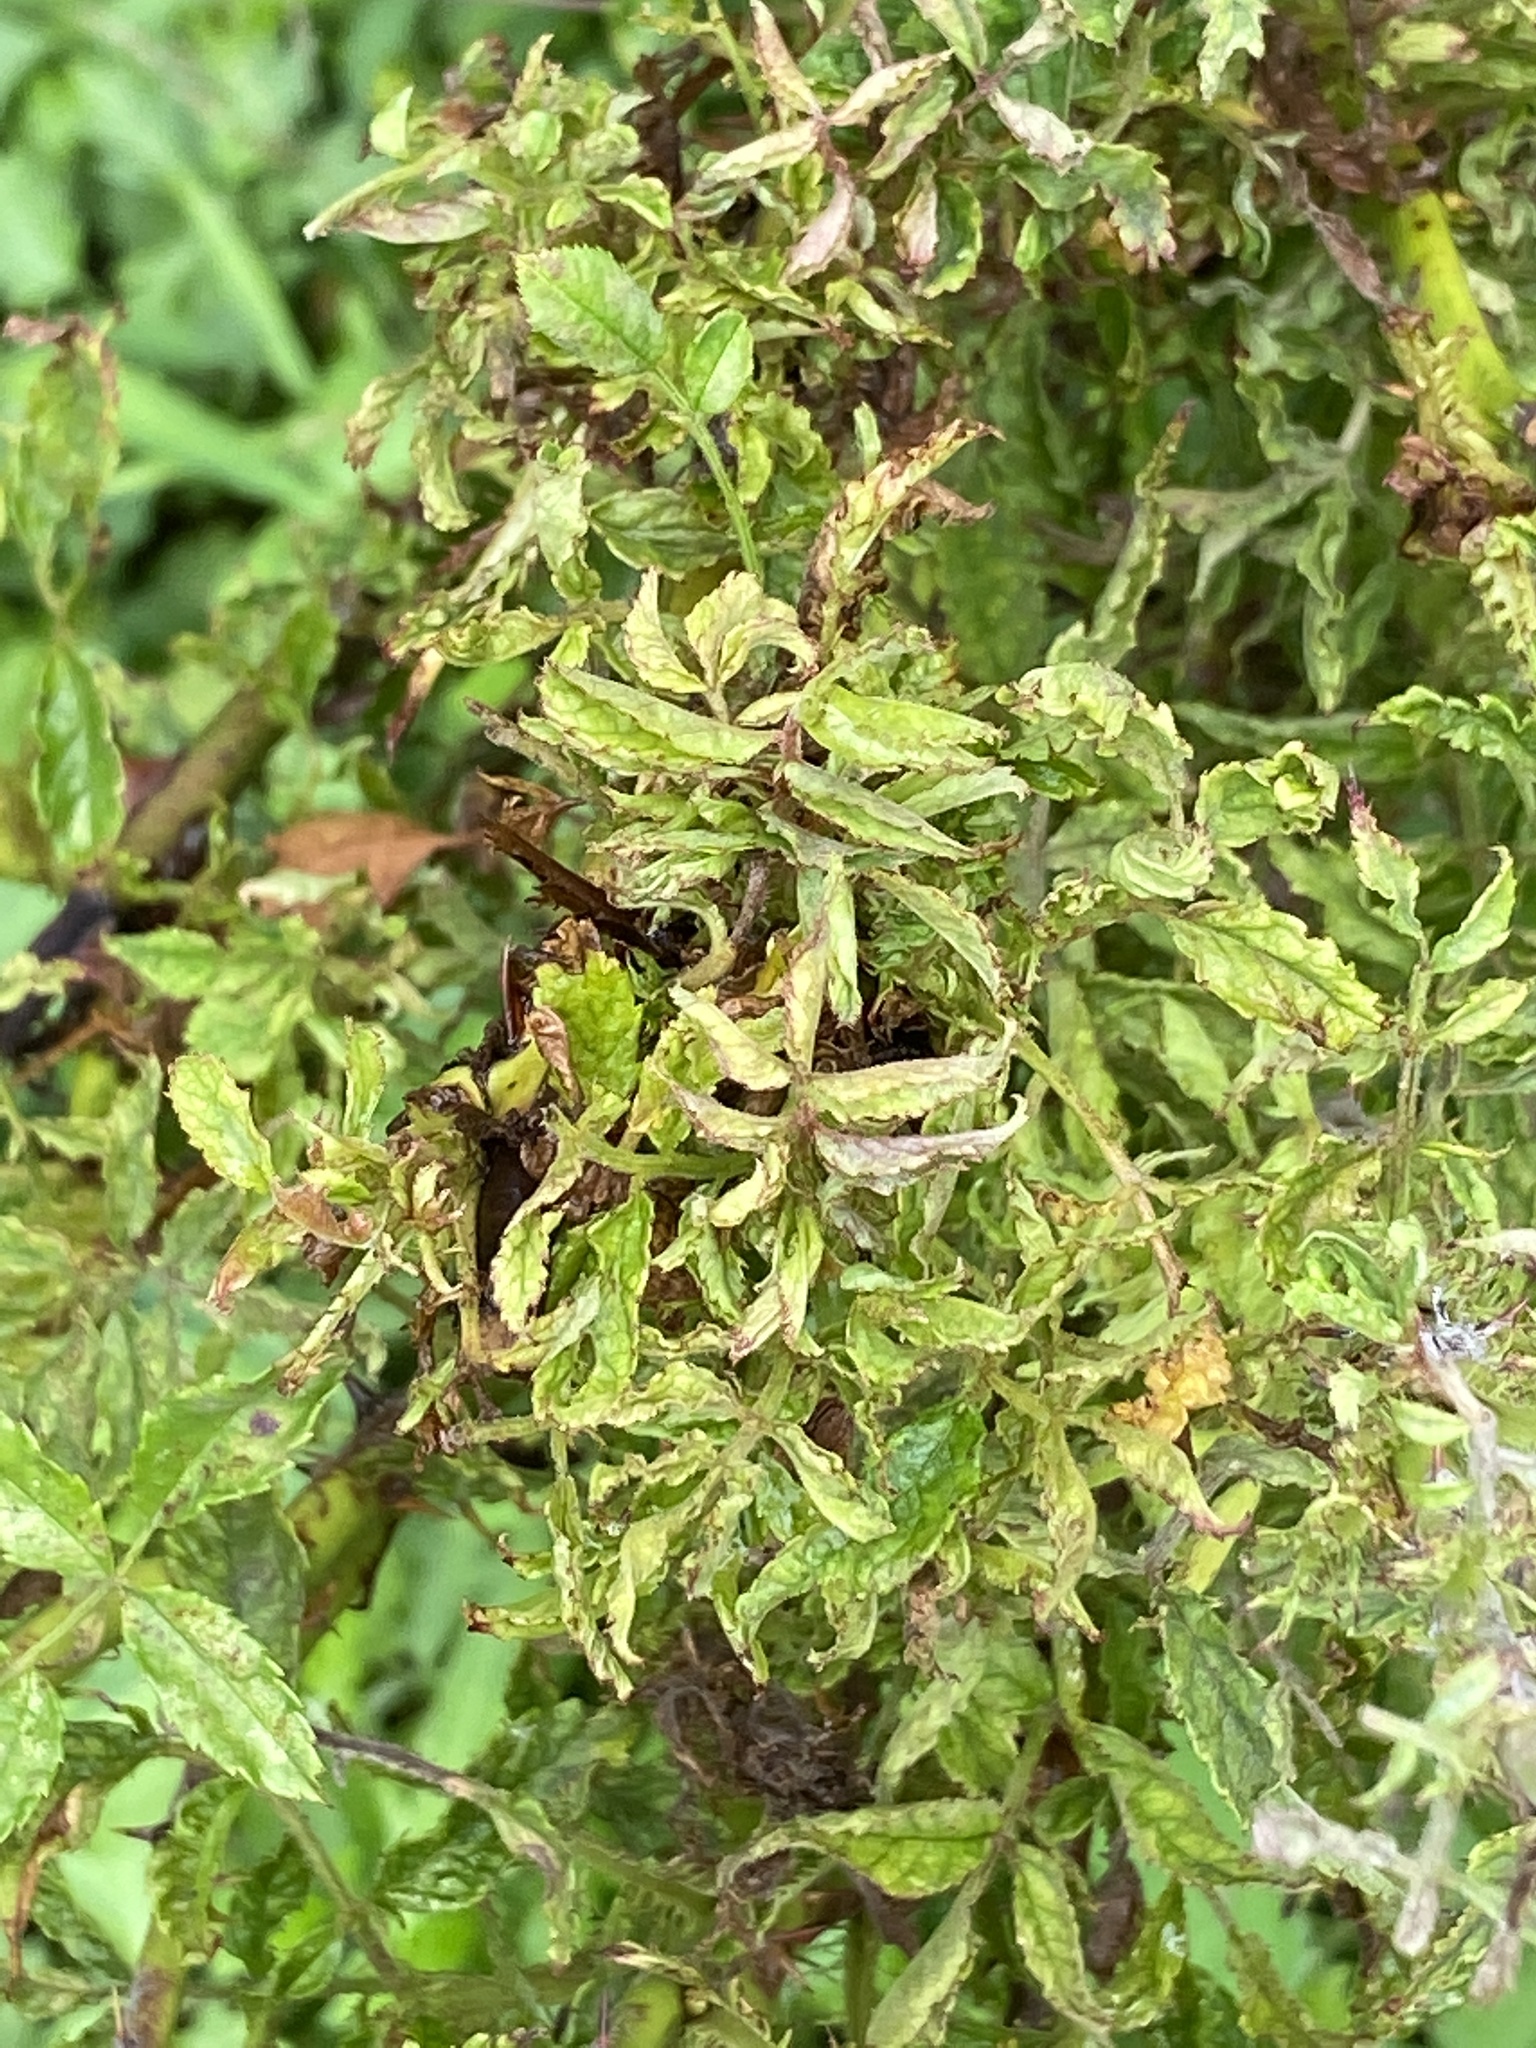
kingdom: Viruses
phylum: Negarnaviricota
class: Ellioviricetes
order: Bunyavirales
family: Fimoviridae
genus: Emaravirus
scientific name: Emaravirus rosae
